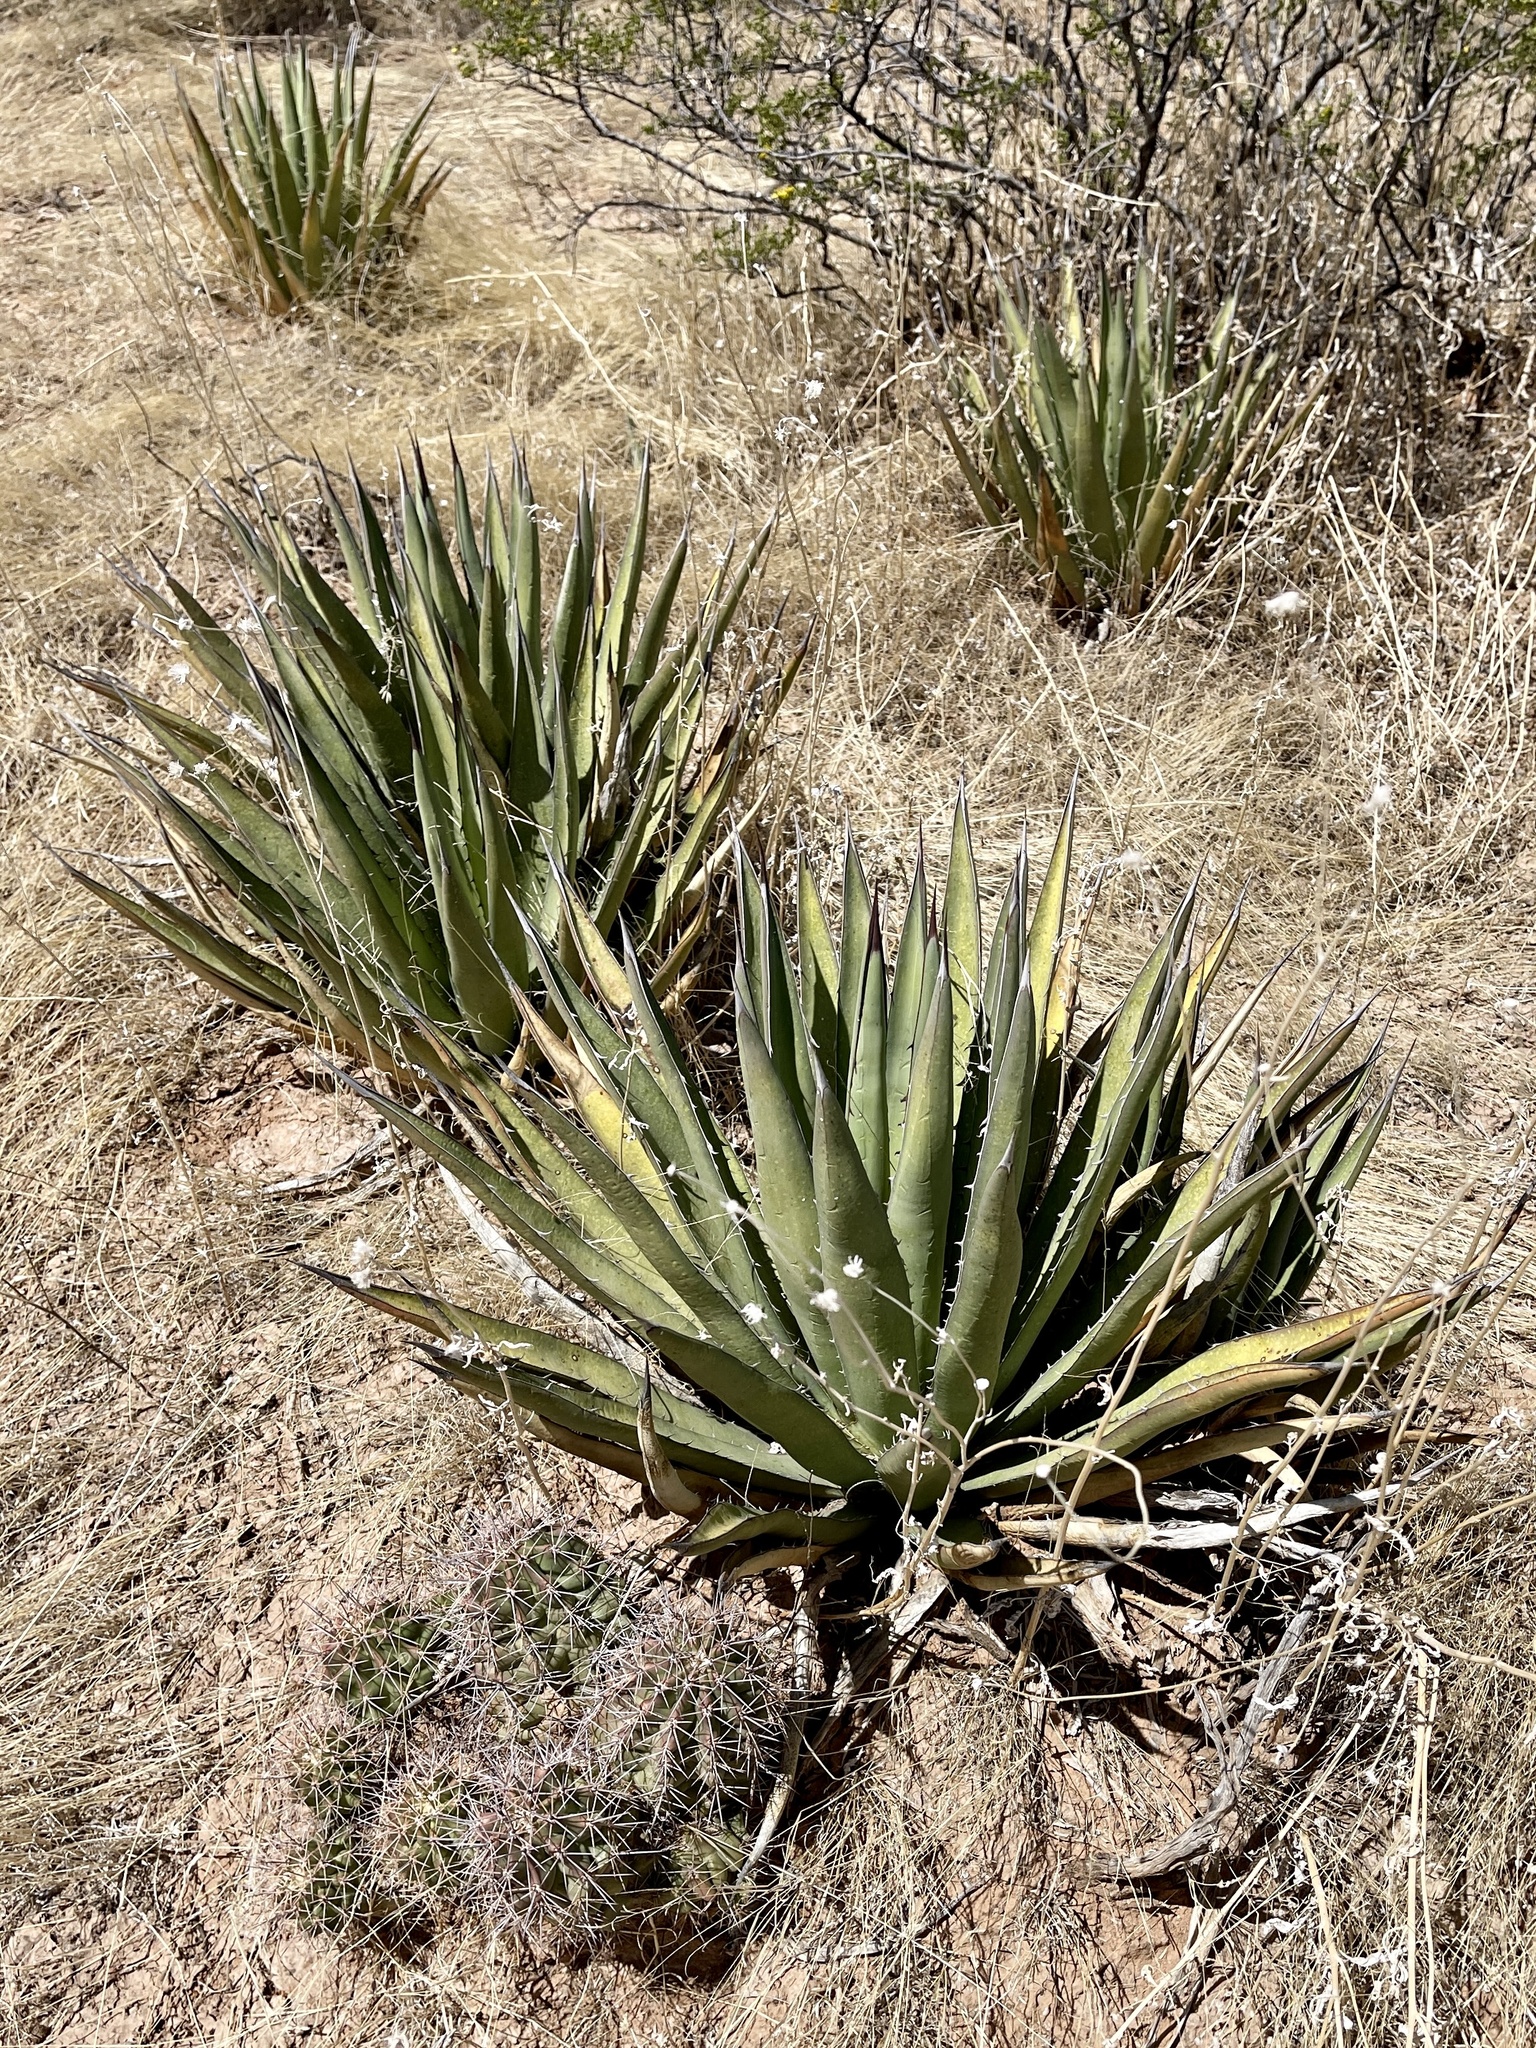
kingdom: Plantae
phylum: Tracheophyta
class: Liliopsida
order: Asparagales
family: Asparagaceae
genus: Agave
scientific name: Agave lechuguilla
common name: Lecheguilla agave
